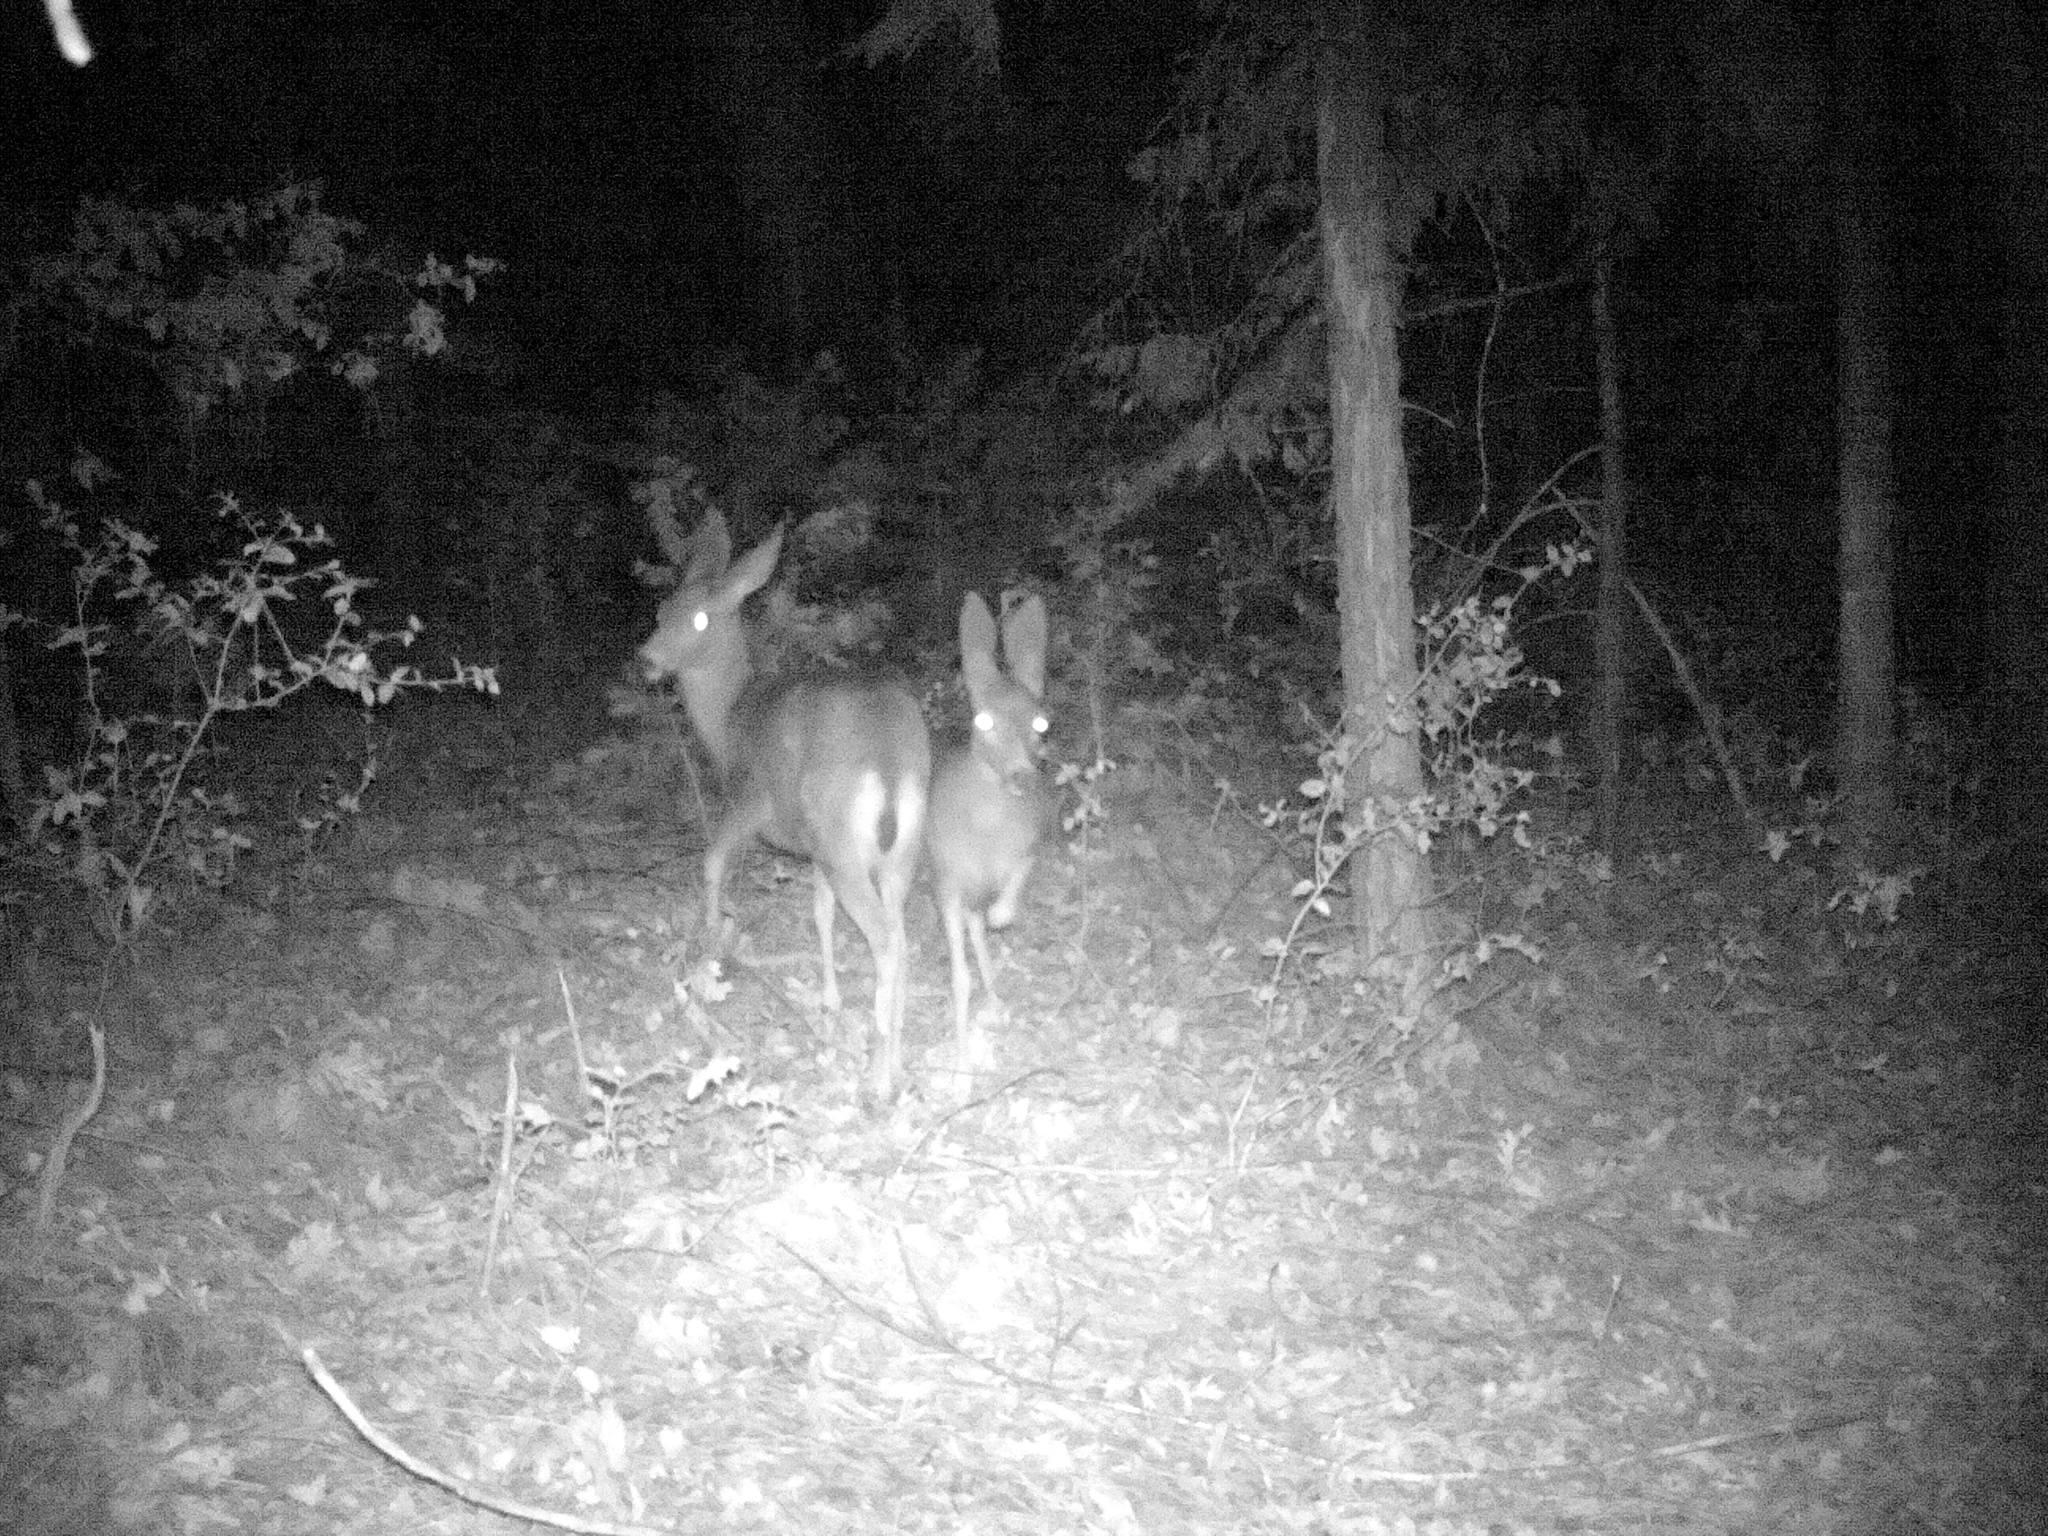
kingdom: Animalia
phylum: Chordata
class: Mammalia
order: Artiodactyla
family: Cervidae
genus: Odocoileus
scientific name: Odocoileus hemionus
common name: Mule deer
